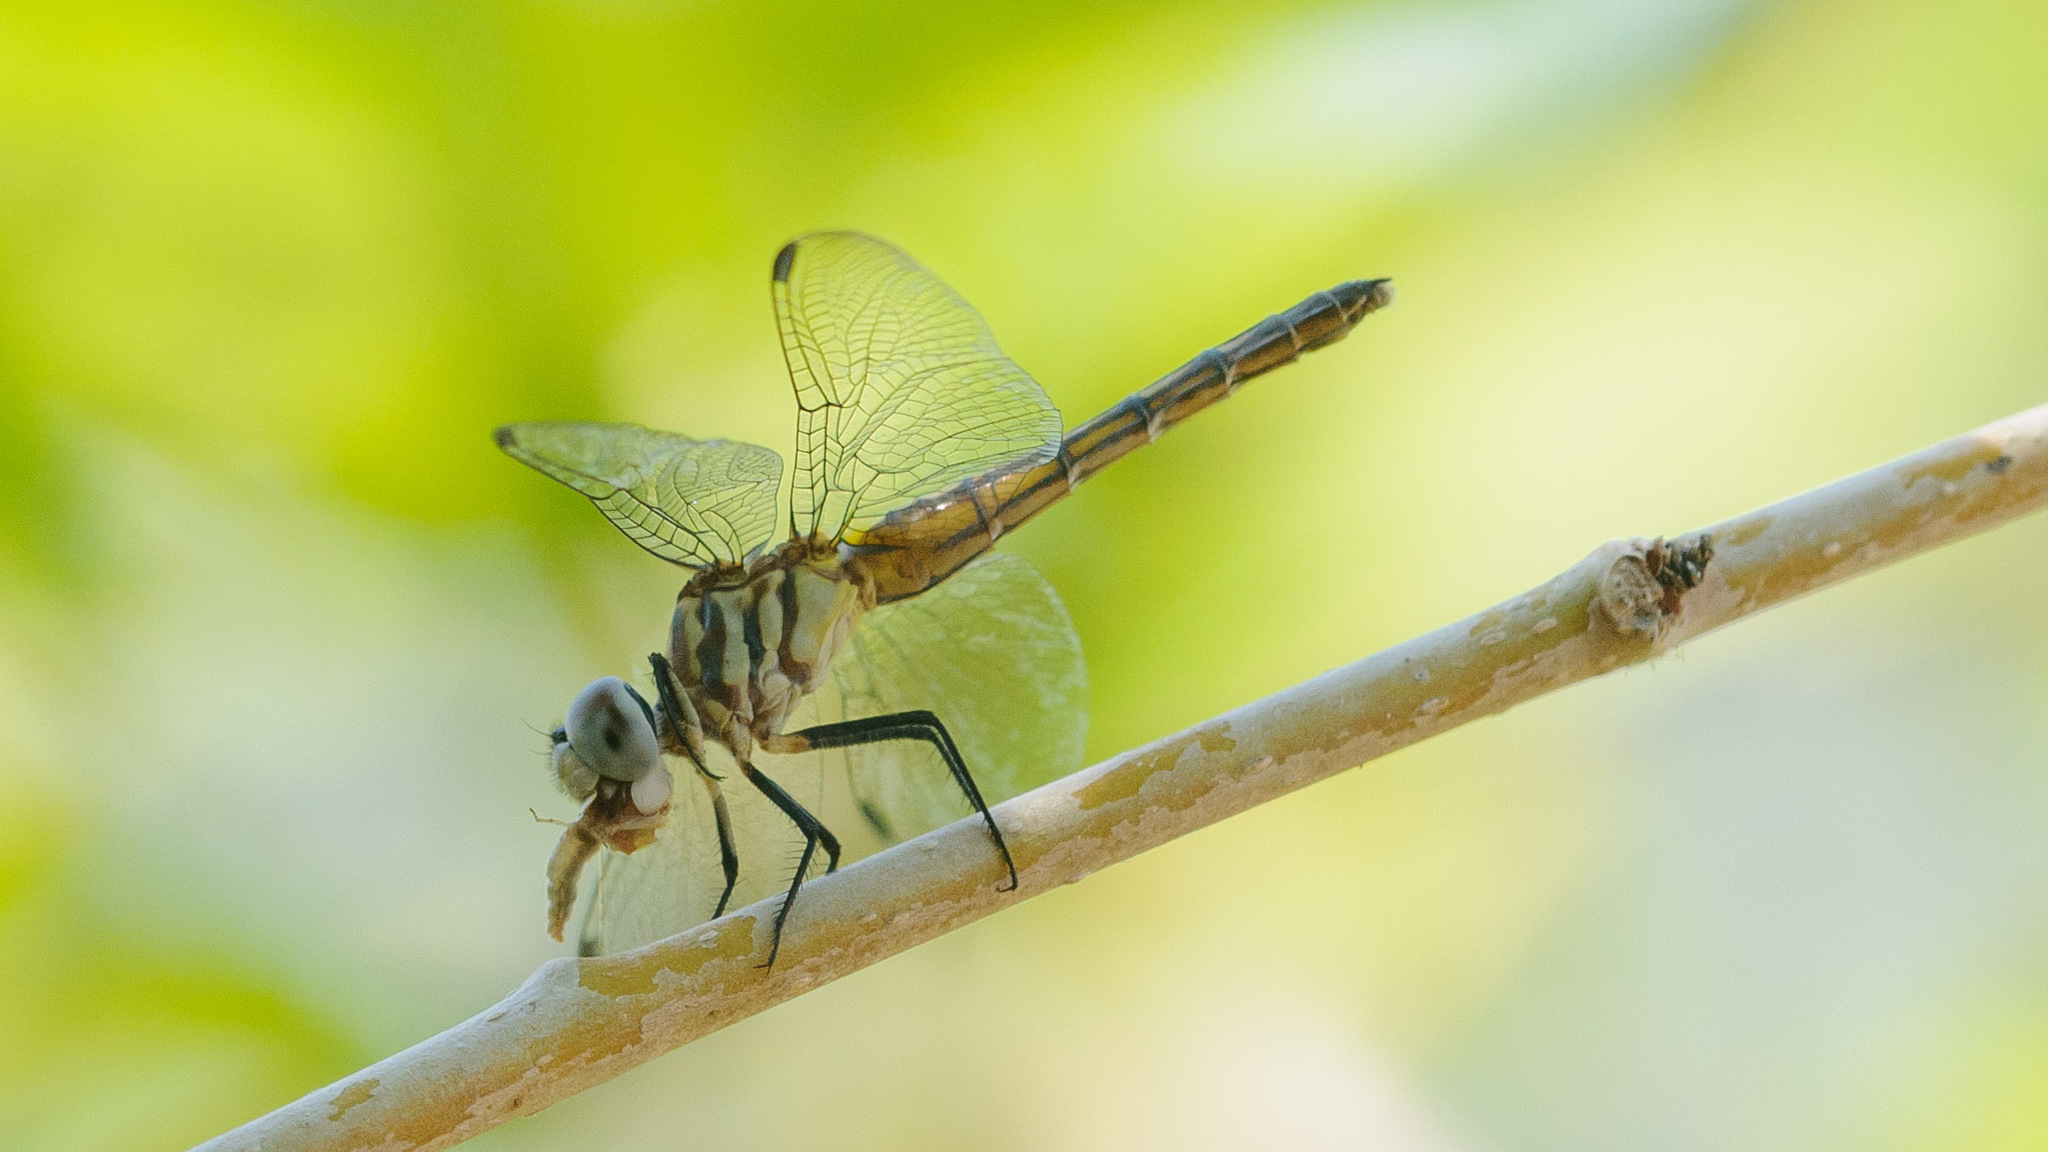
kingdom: Animalia
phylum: Arthropoda
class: Insecta
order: Odonata
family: Libellulidae
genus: Pachydiplax
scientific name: Pachydiplax longipennis
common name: Blue dasher
